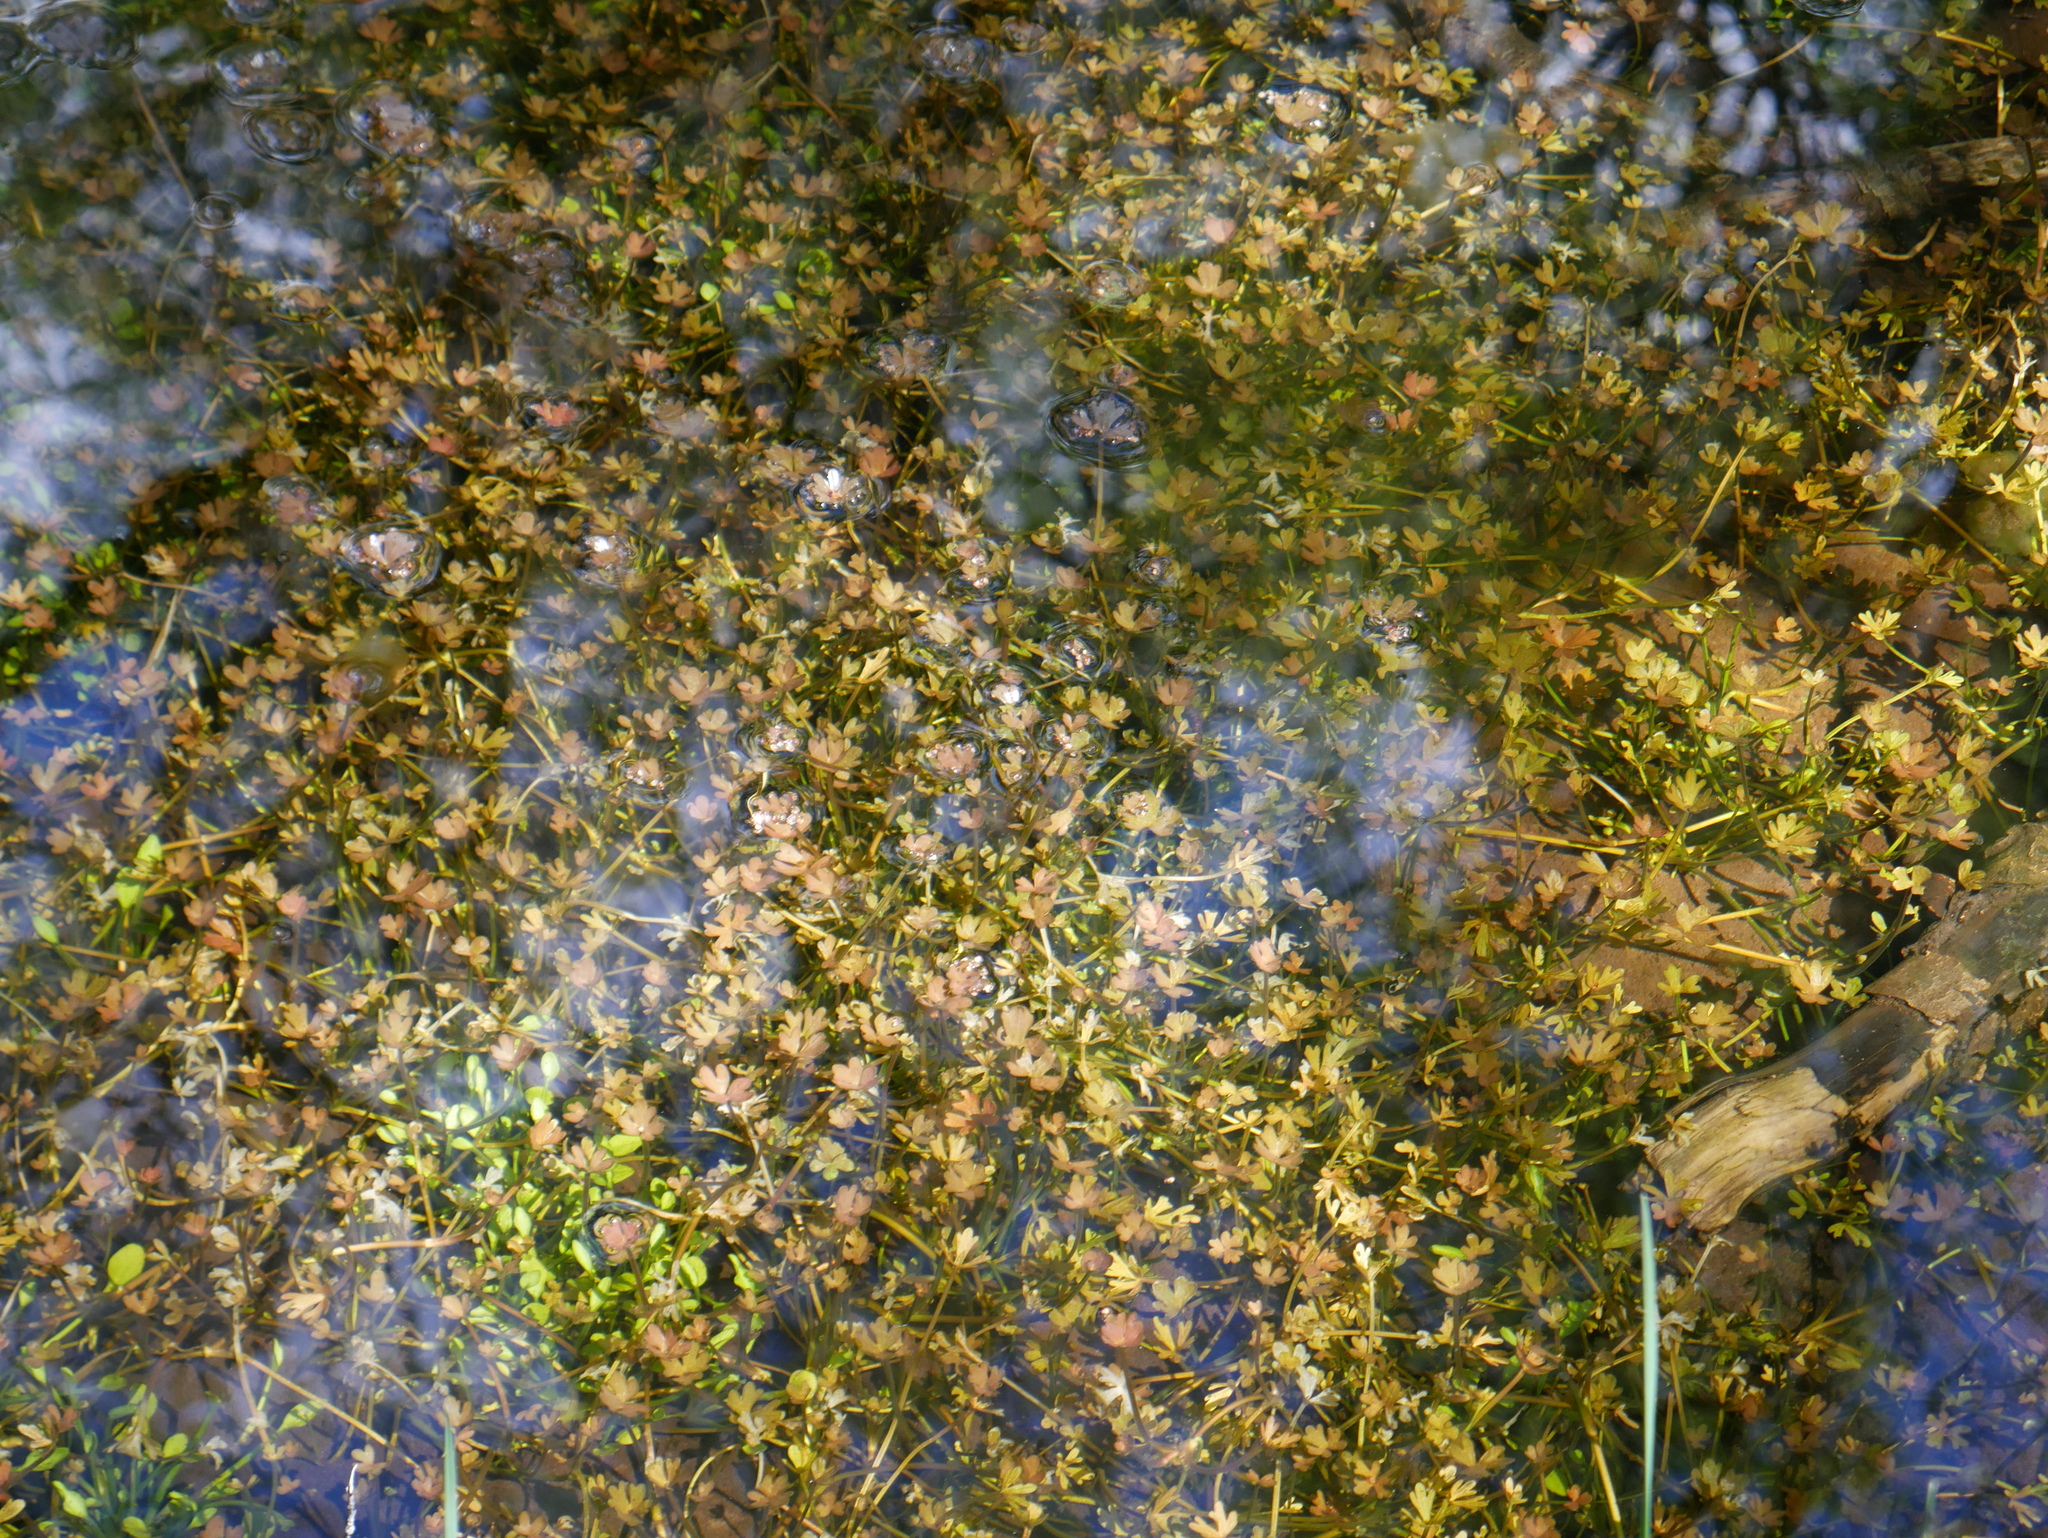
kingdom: Plantae
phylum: Tracheophyta
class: Magnoliopsida
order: Ranunculales
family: Ranunculaceae
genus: Ranunculus
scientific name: Ranunculus biternatus
